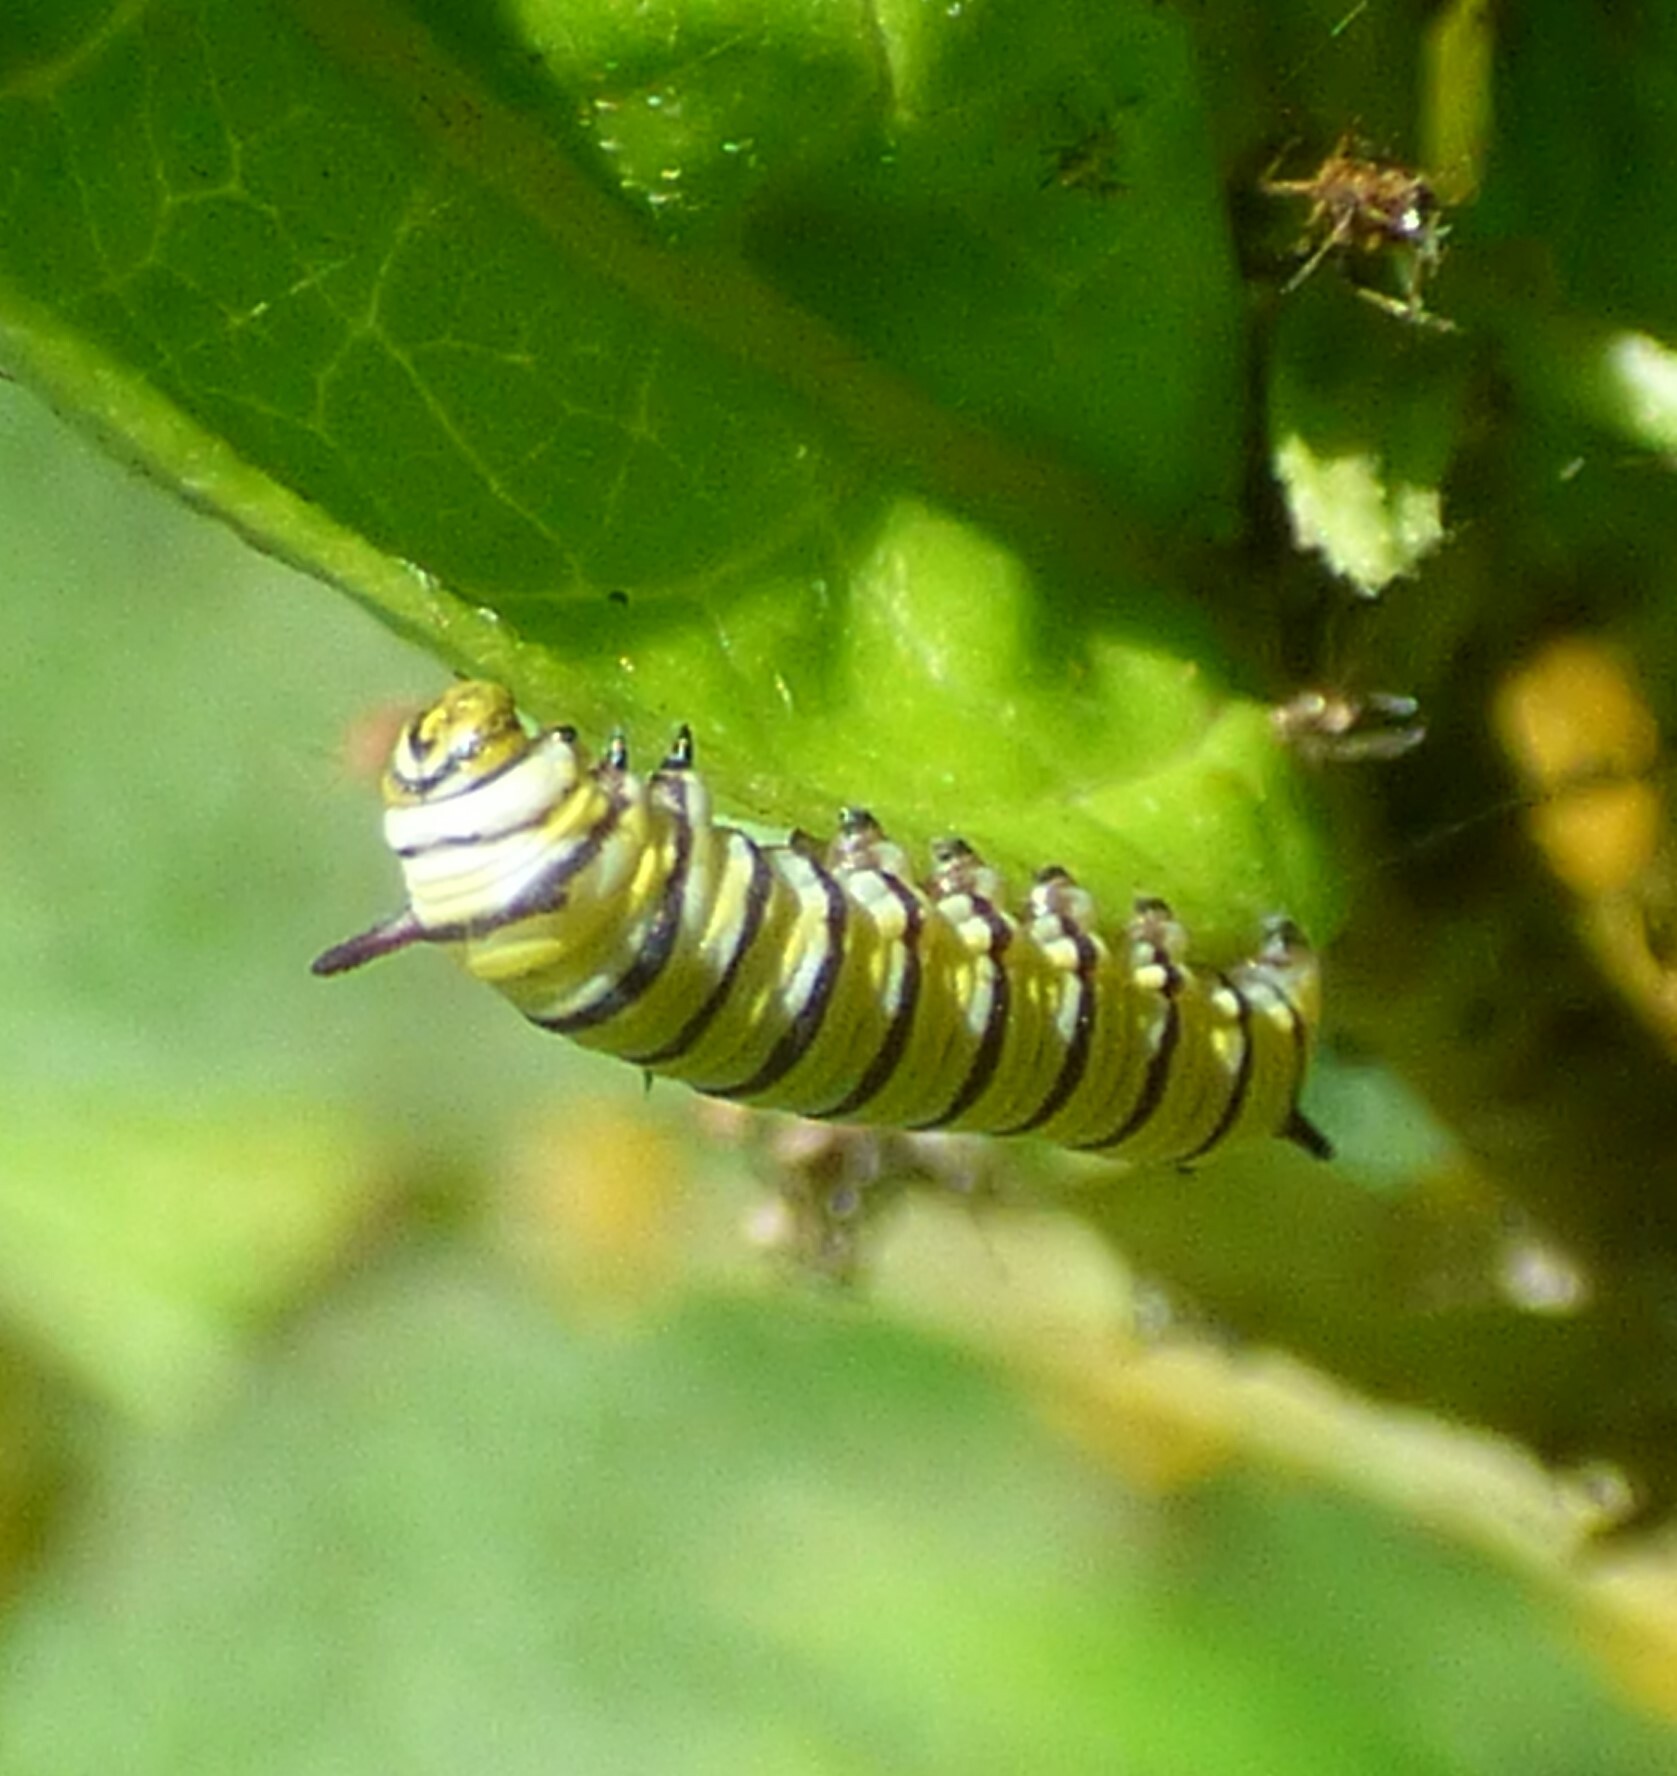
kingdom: Animalia
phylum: Arthropoda
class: Insecta
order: Lepidoptera
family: Nymphalidae
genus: Danaus
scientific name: Danaus plexippus
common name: Monarch
